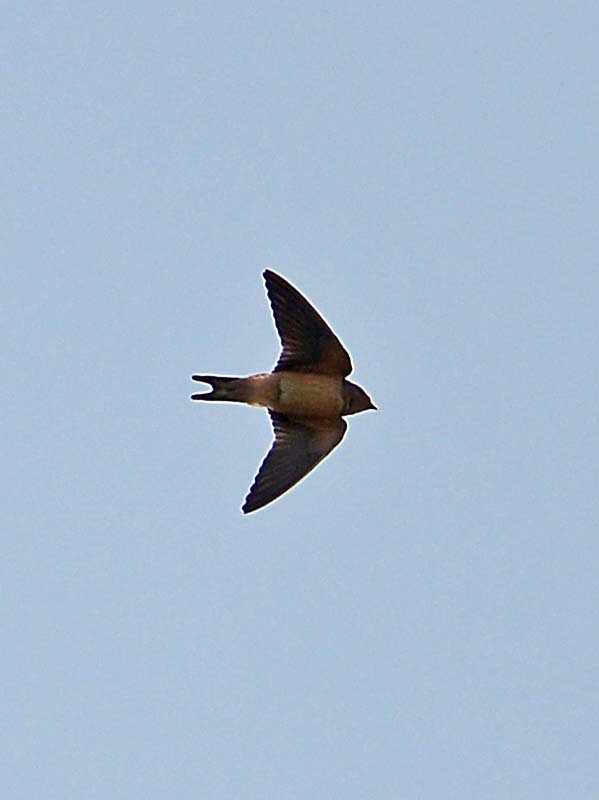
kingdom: Animalia
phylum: Chordata
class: Aves
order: Passeriformes
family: Hirundinidae
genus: Hirundo
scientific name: Hirundo rustica
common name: Barn swallow
